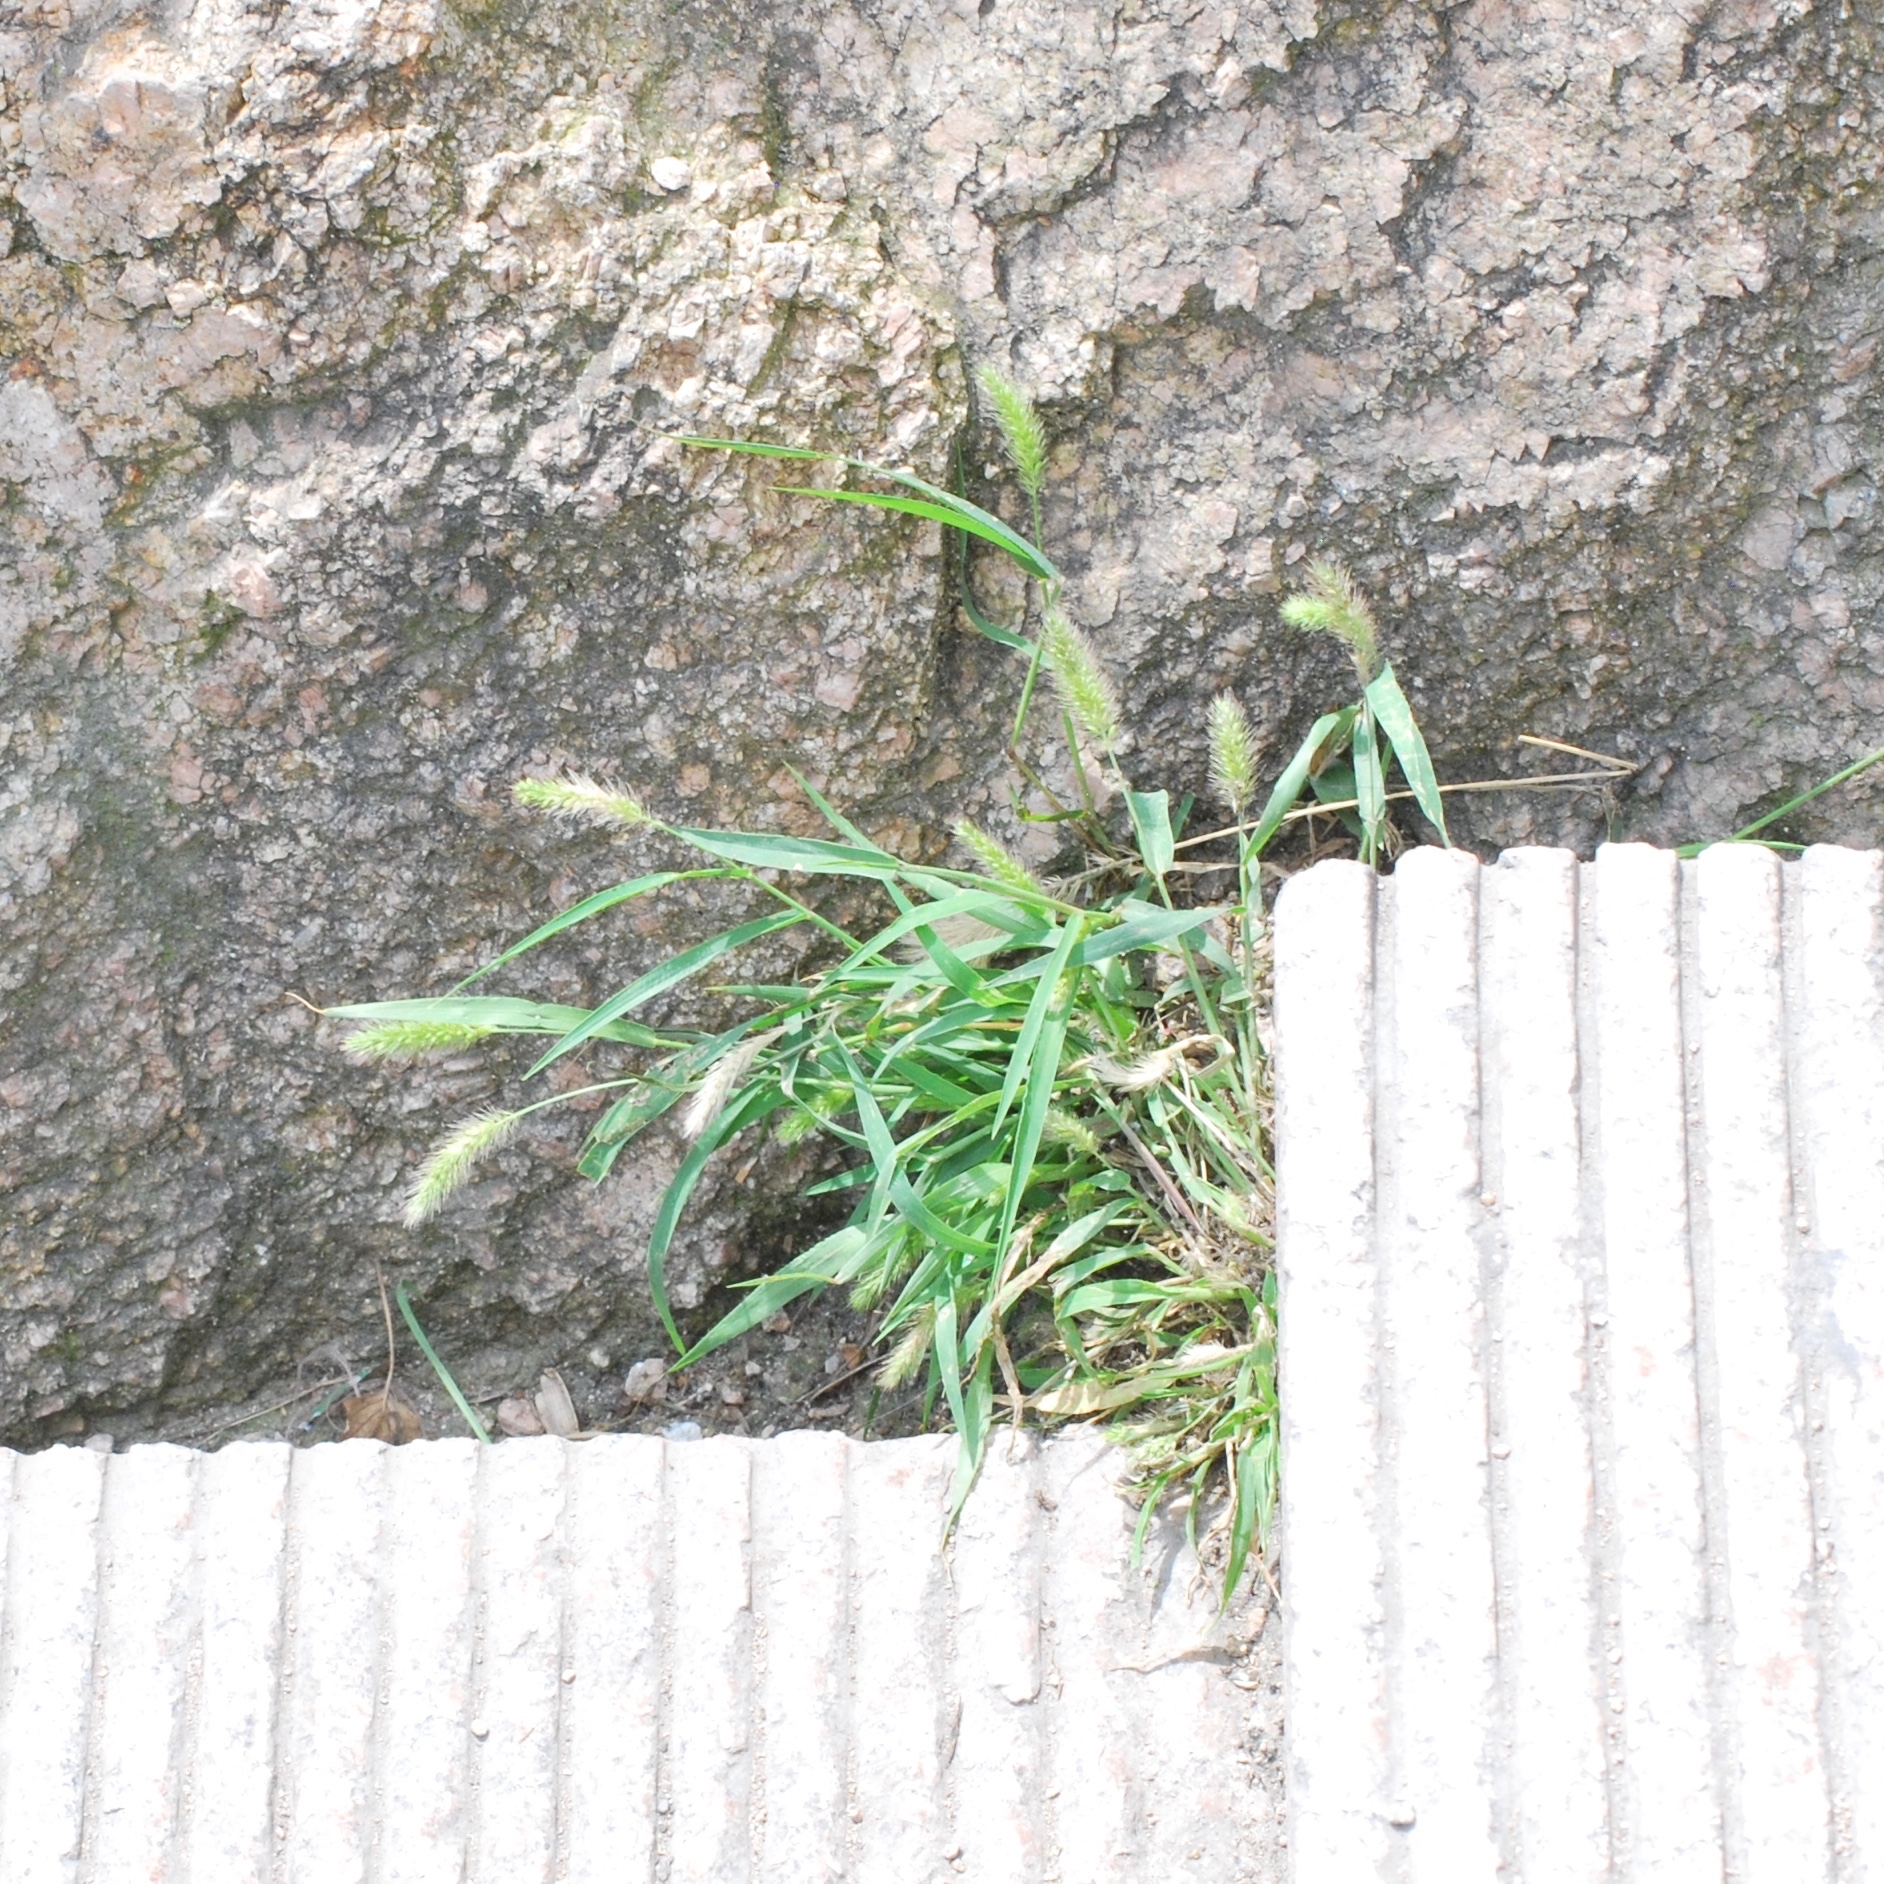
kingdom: Plantae
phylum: Tracheophyta
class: Liliopsida
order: Poales
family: Poaceae
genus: Setaria
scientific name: Setaria viridis
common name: Green bristlegrass
